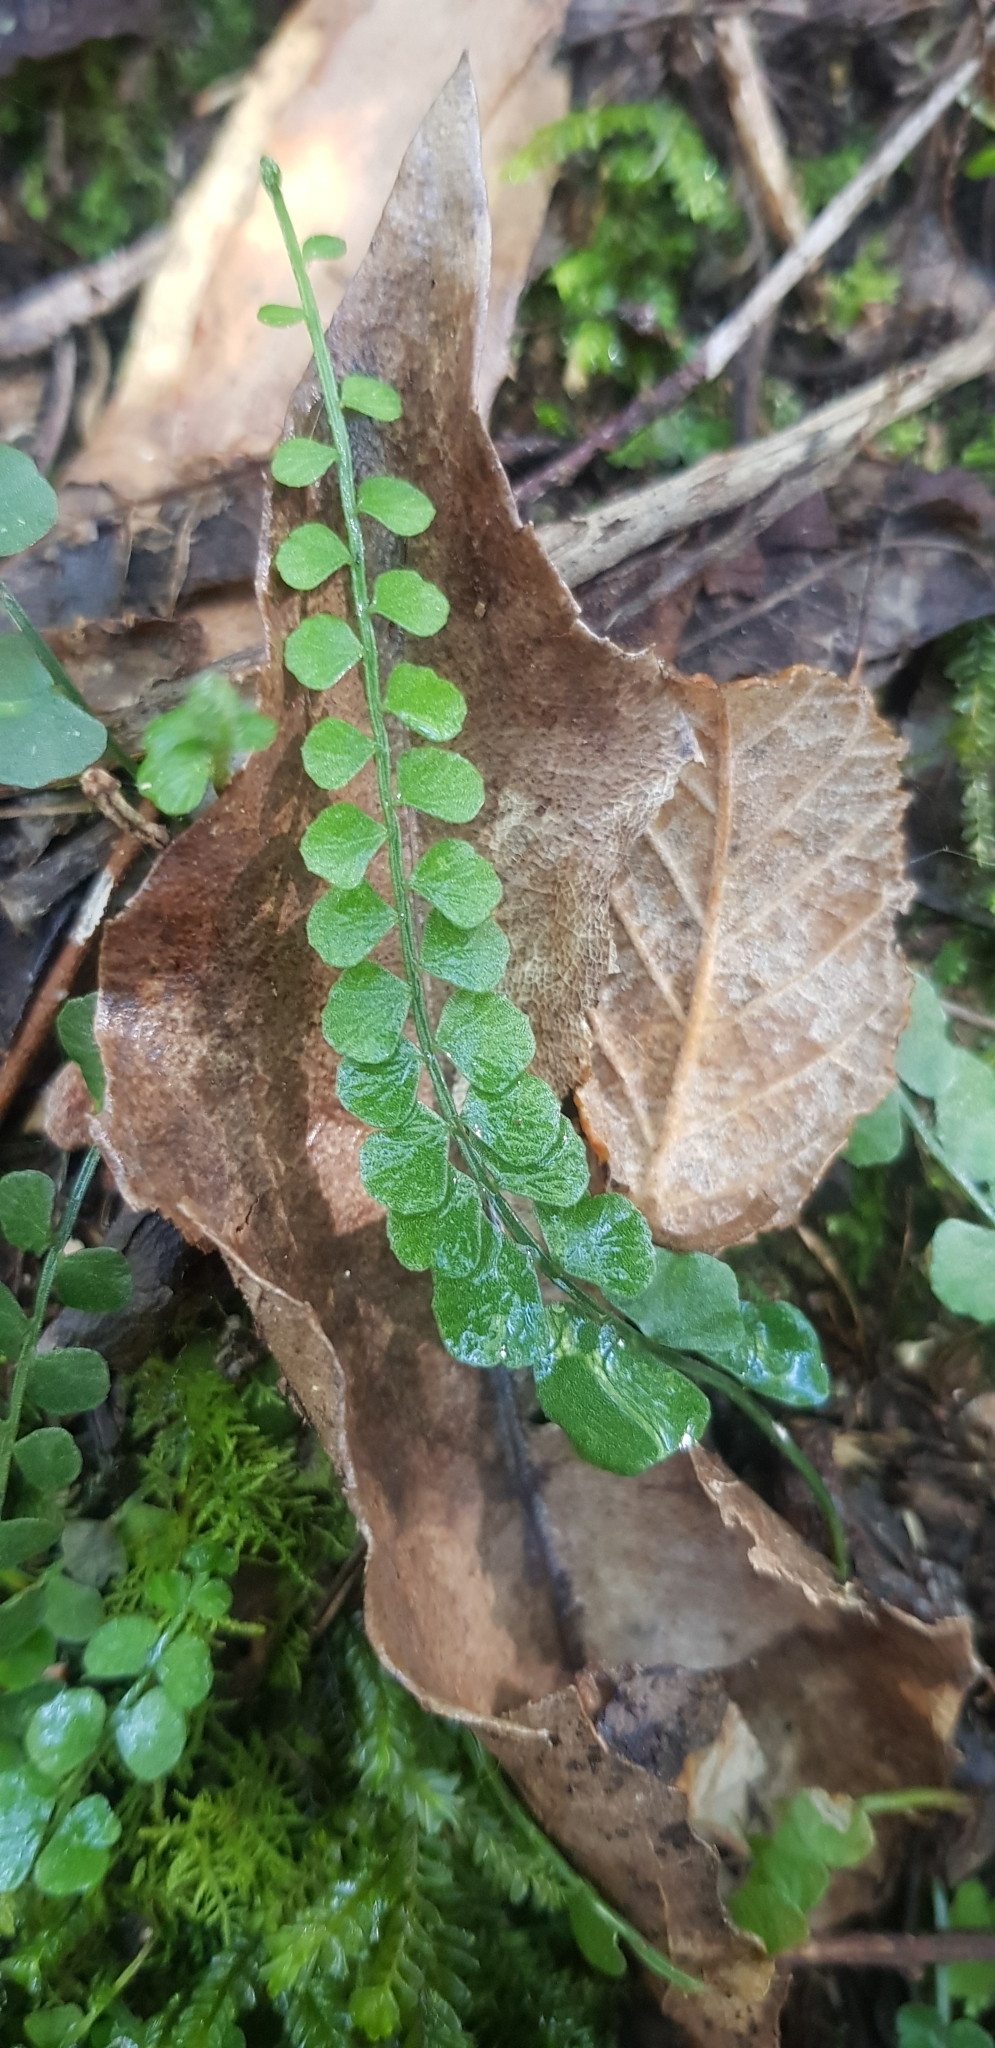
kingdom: Plantae
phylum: Tracheophyta
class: Polypodiopsida
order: Polypodiales
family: Aspleniaceae
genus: Asplenium
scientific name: Asplenium flabellifolium
